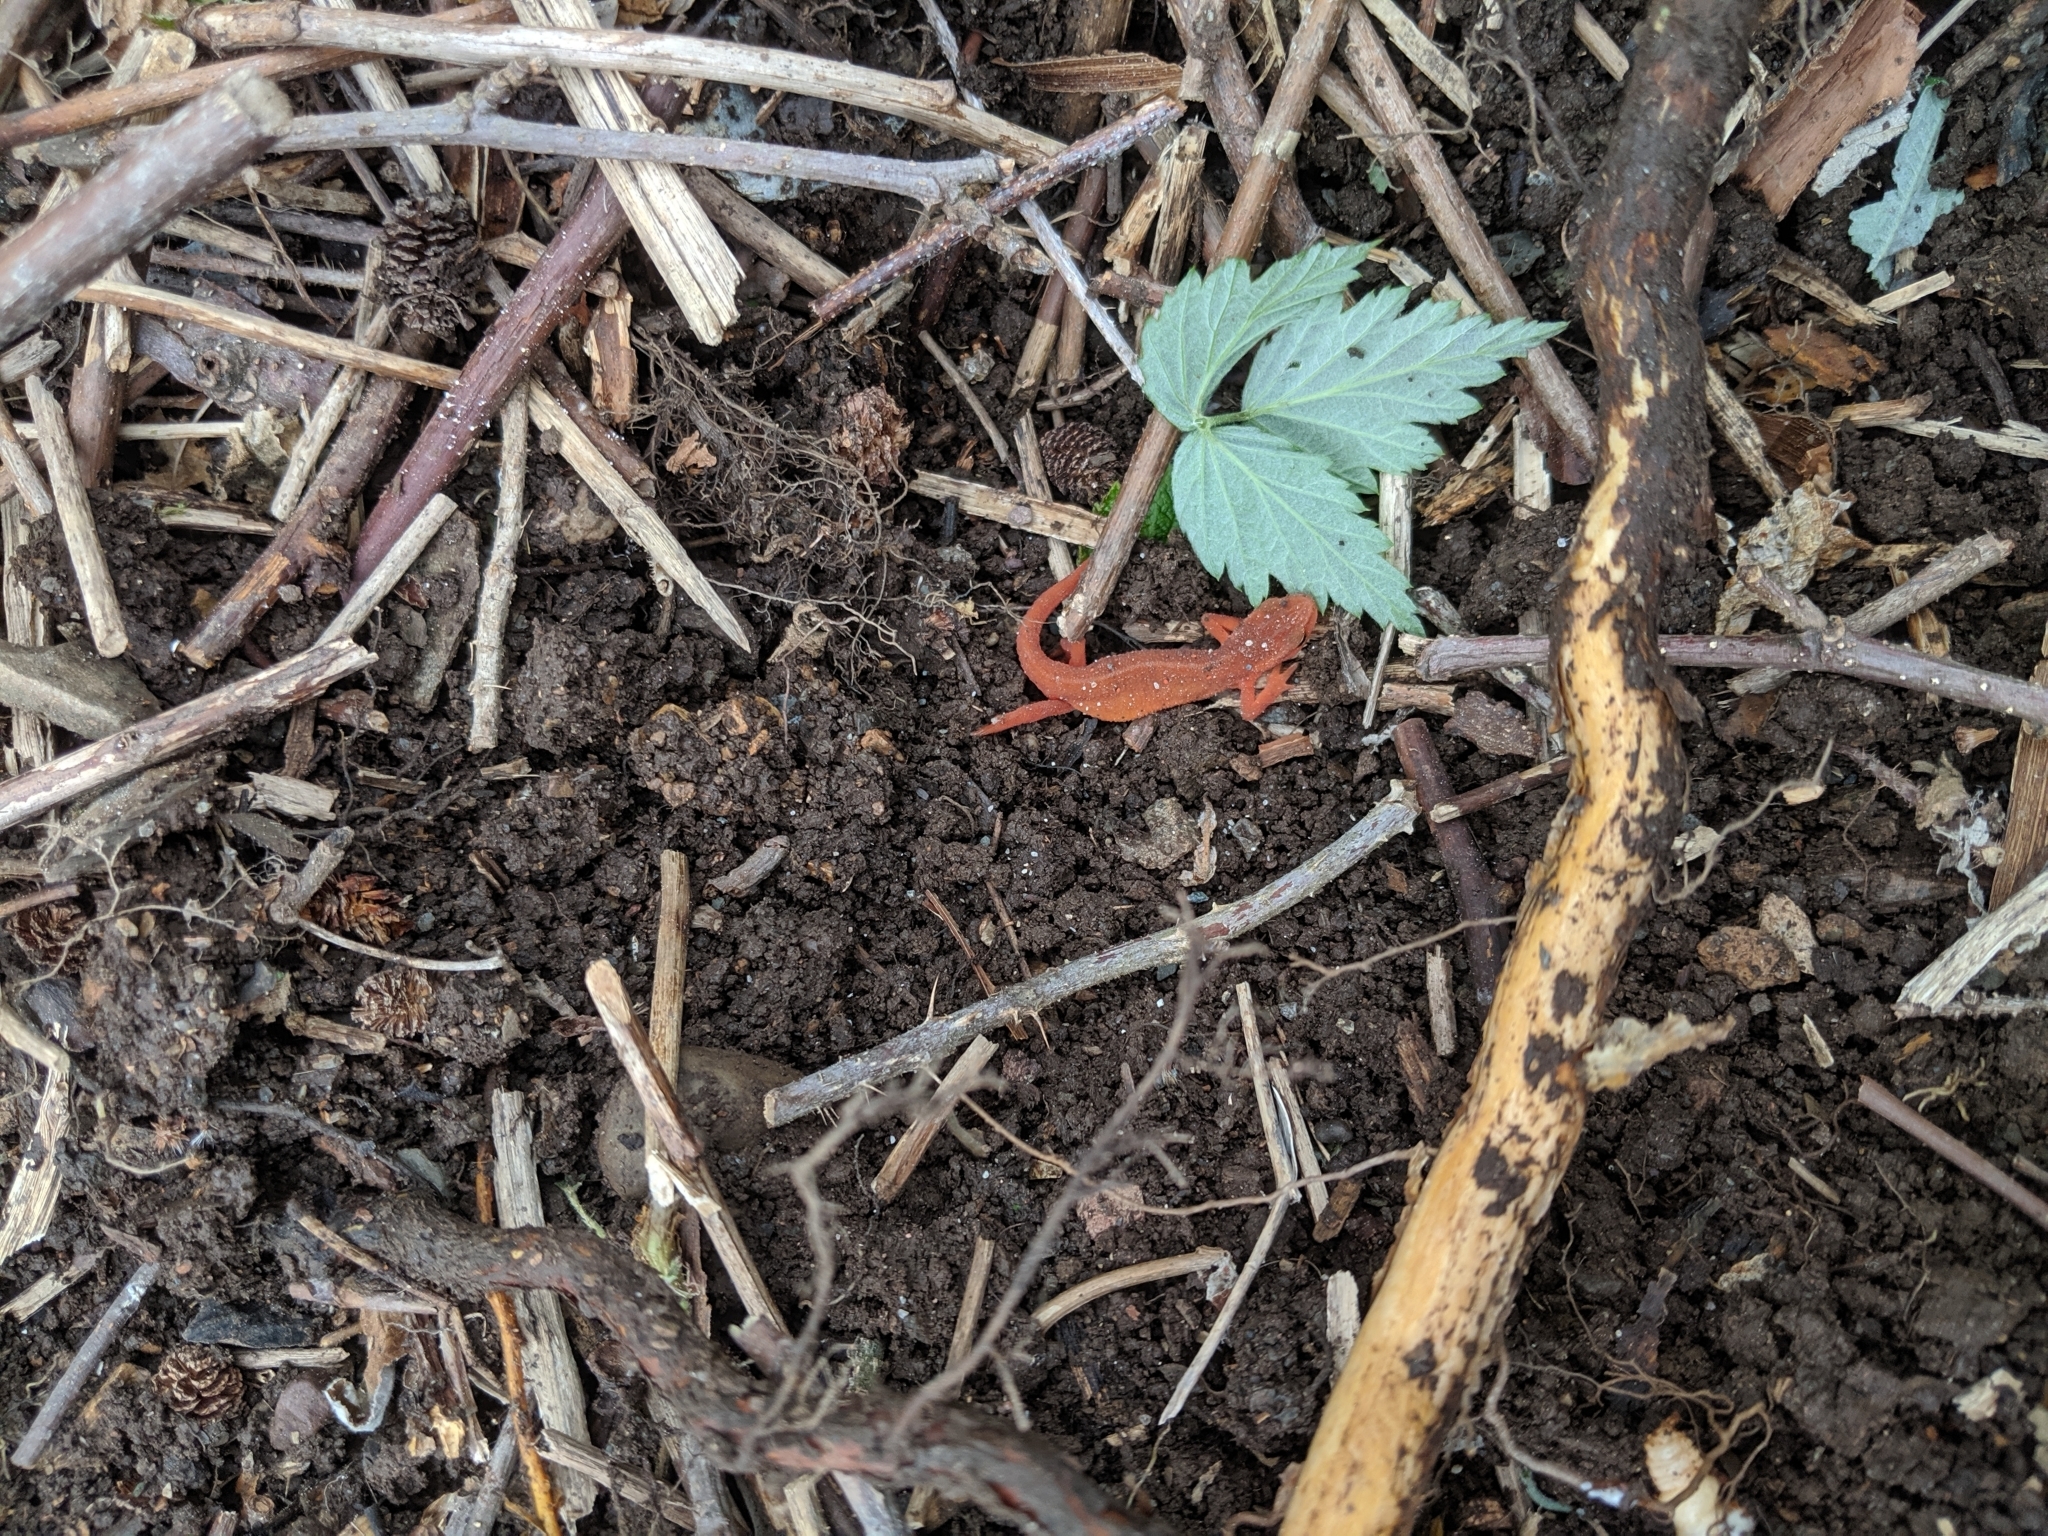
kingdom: Animalia
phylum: Chordata
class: Amphibia
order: Caudata
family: Salamandridae
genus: Notophthalmus
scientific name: Notophthalmus viridescens
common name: Eastern newt
